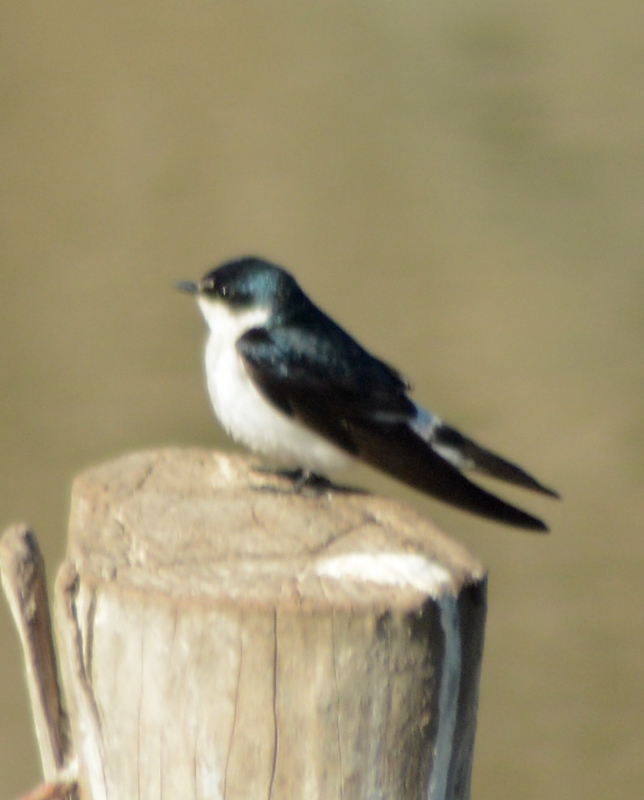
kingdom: Animalia
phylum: Chordata
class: Aves
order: Passeriformes
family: Hirundinidae
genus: Tachycineta
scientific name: Tachycineta albilinea
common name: Mangrove swallow
